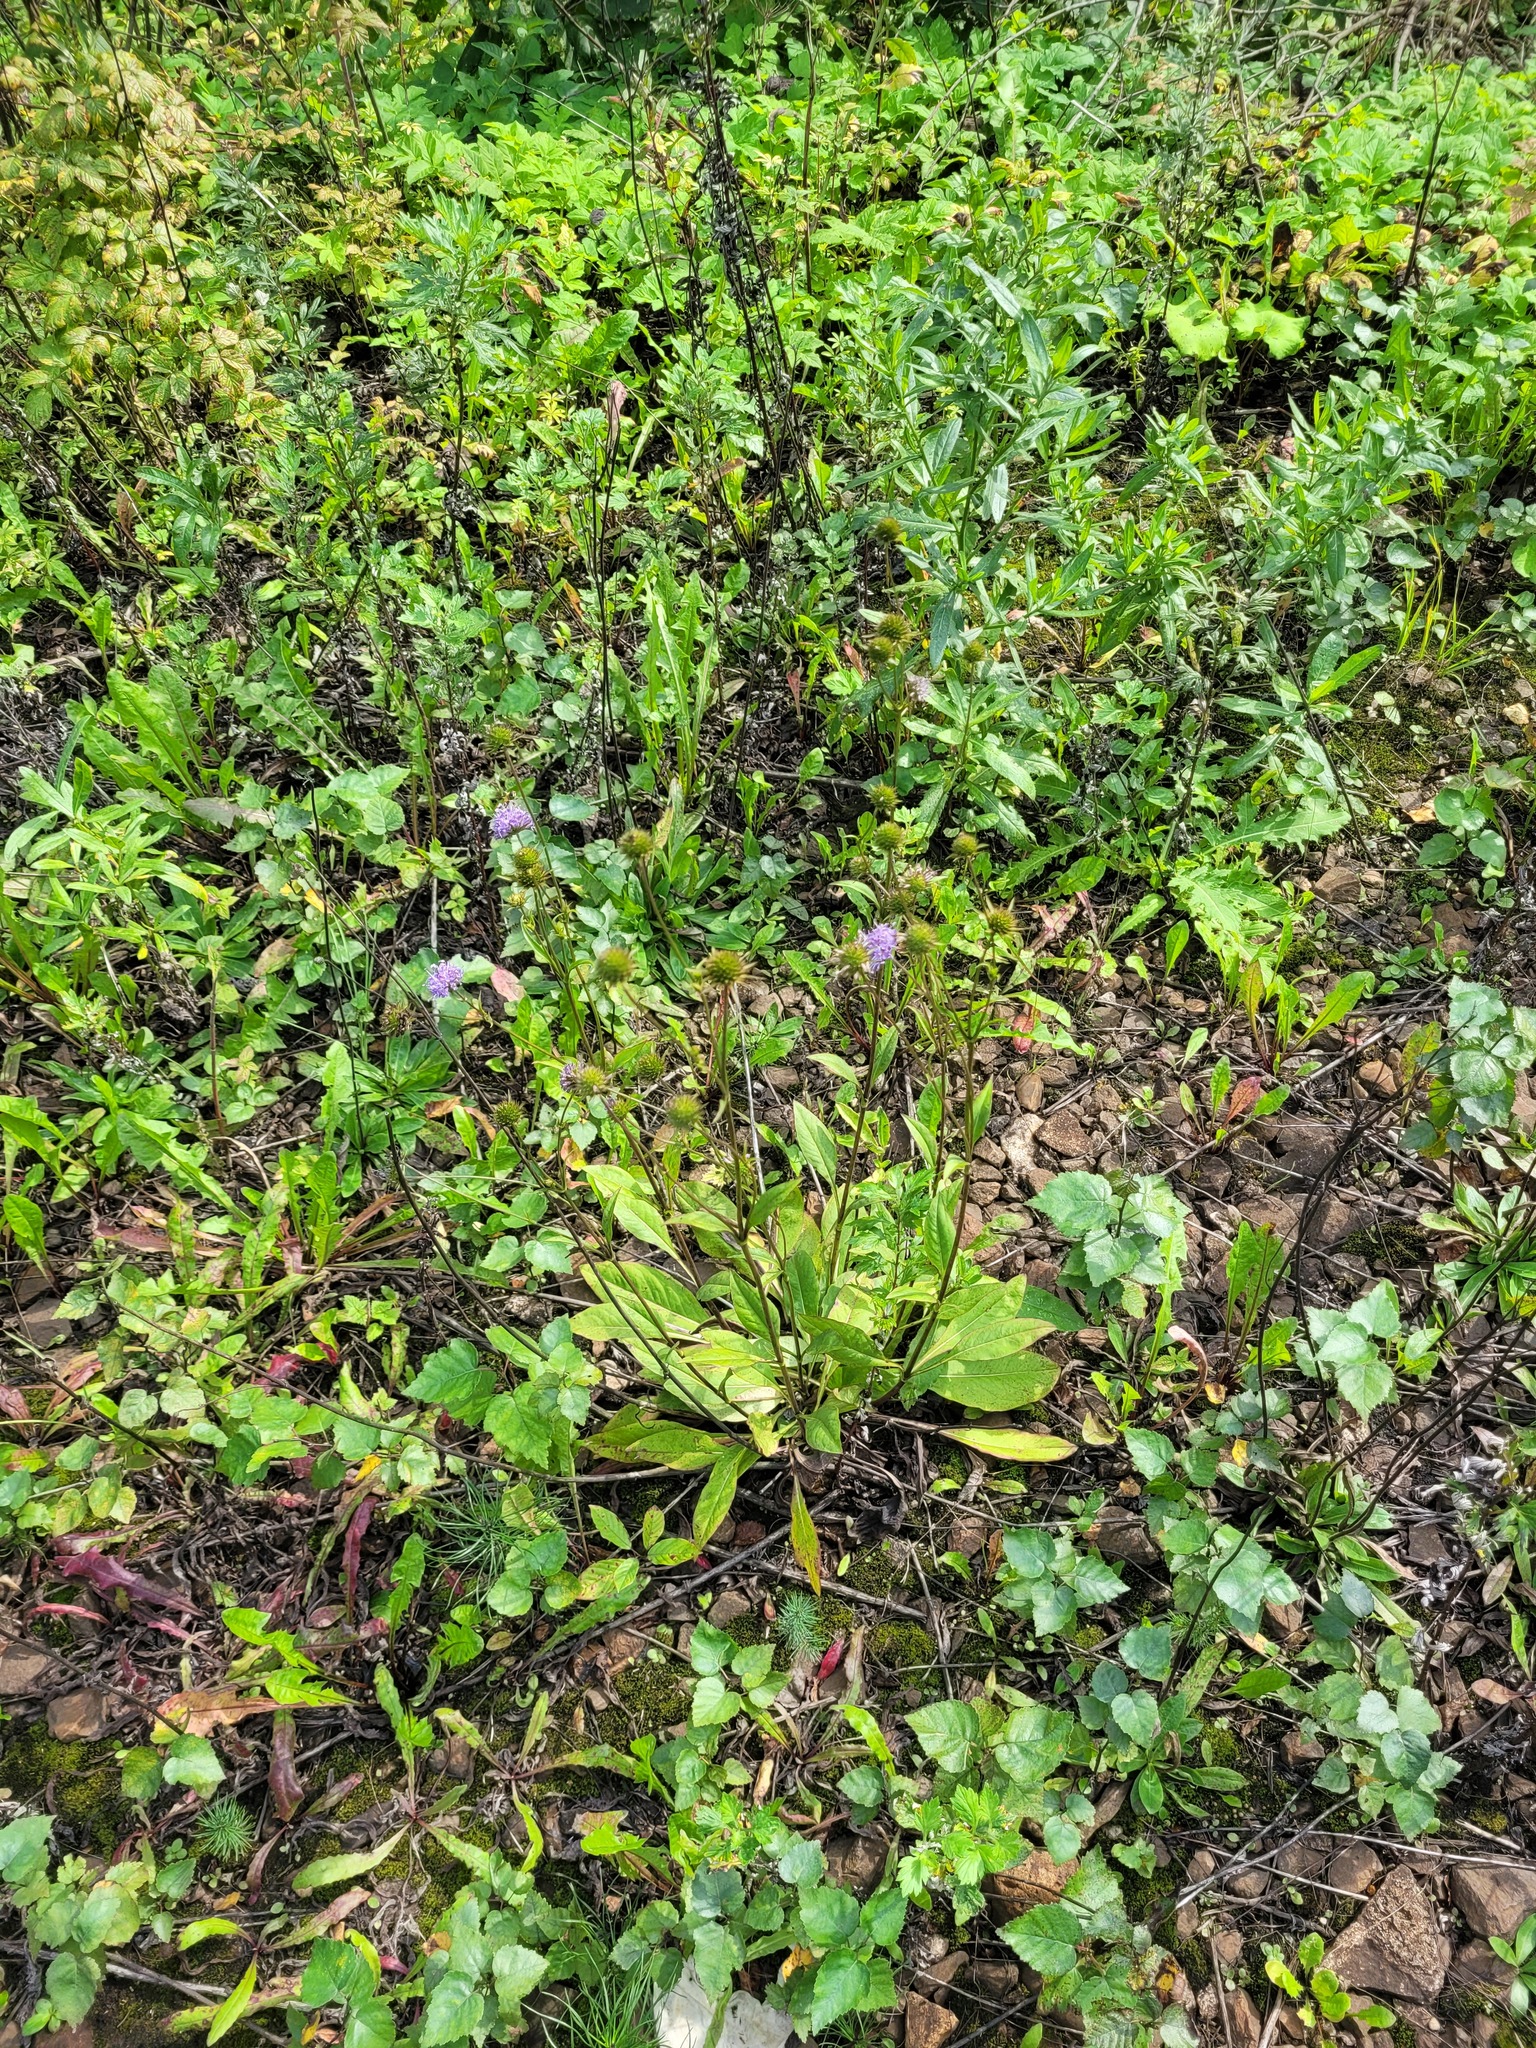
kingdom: Plantae
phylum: Tracheophyta
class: Magnoliopsida
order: Dipsacales
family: Caprifoliaceae
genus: Succisa
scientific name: Succisa pratensis
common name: Devil's-bit
